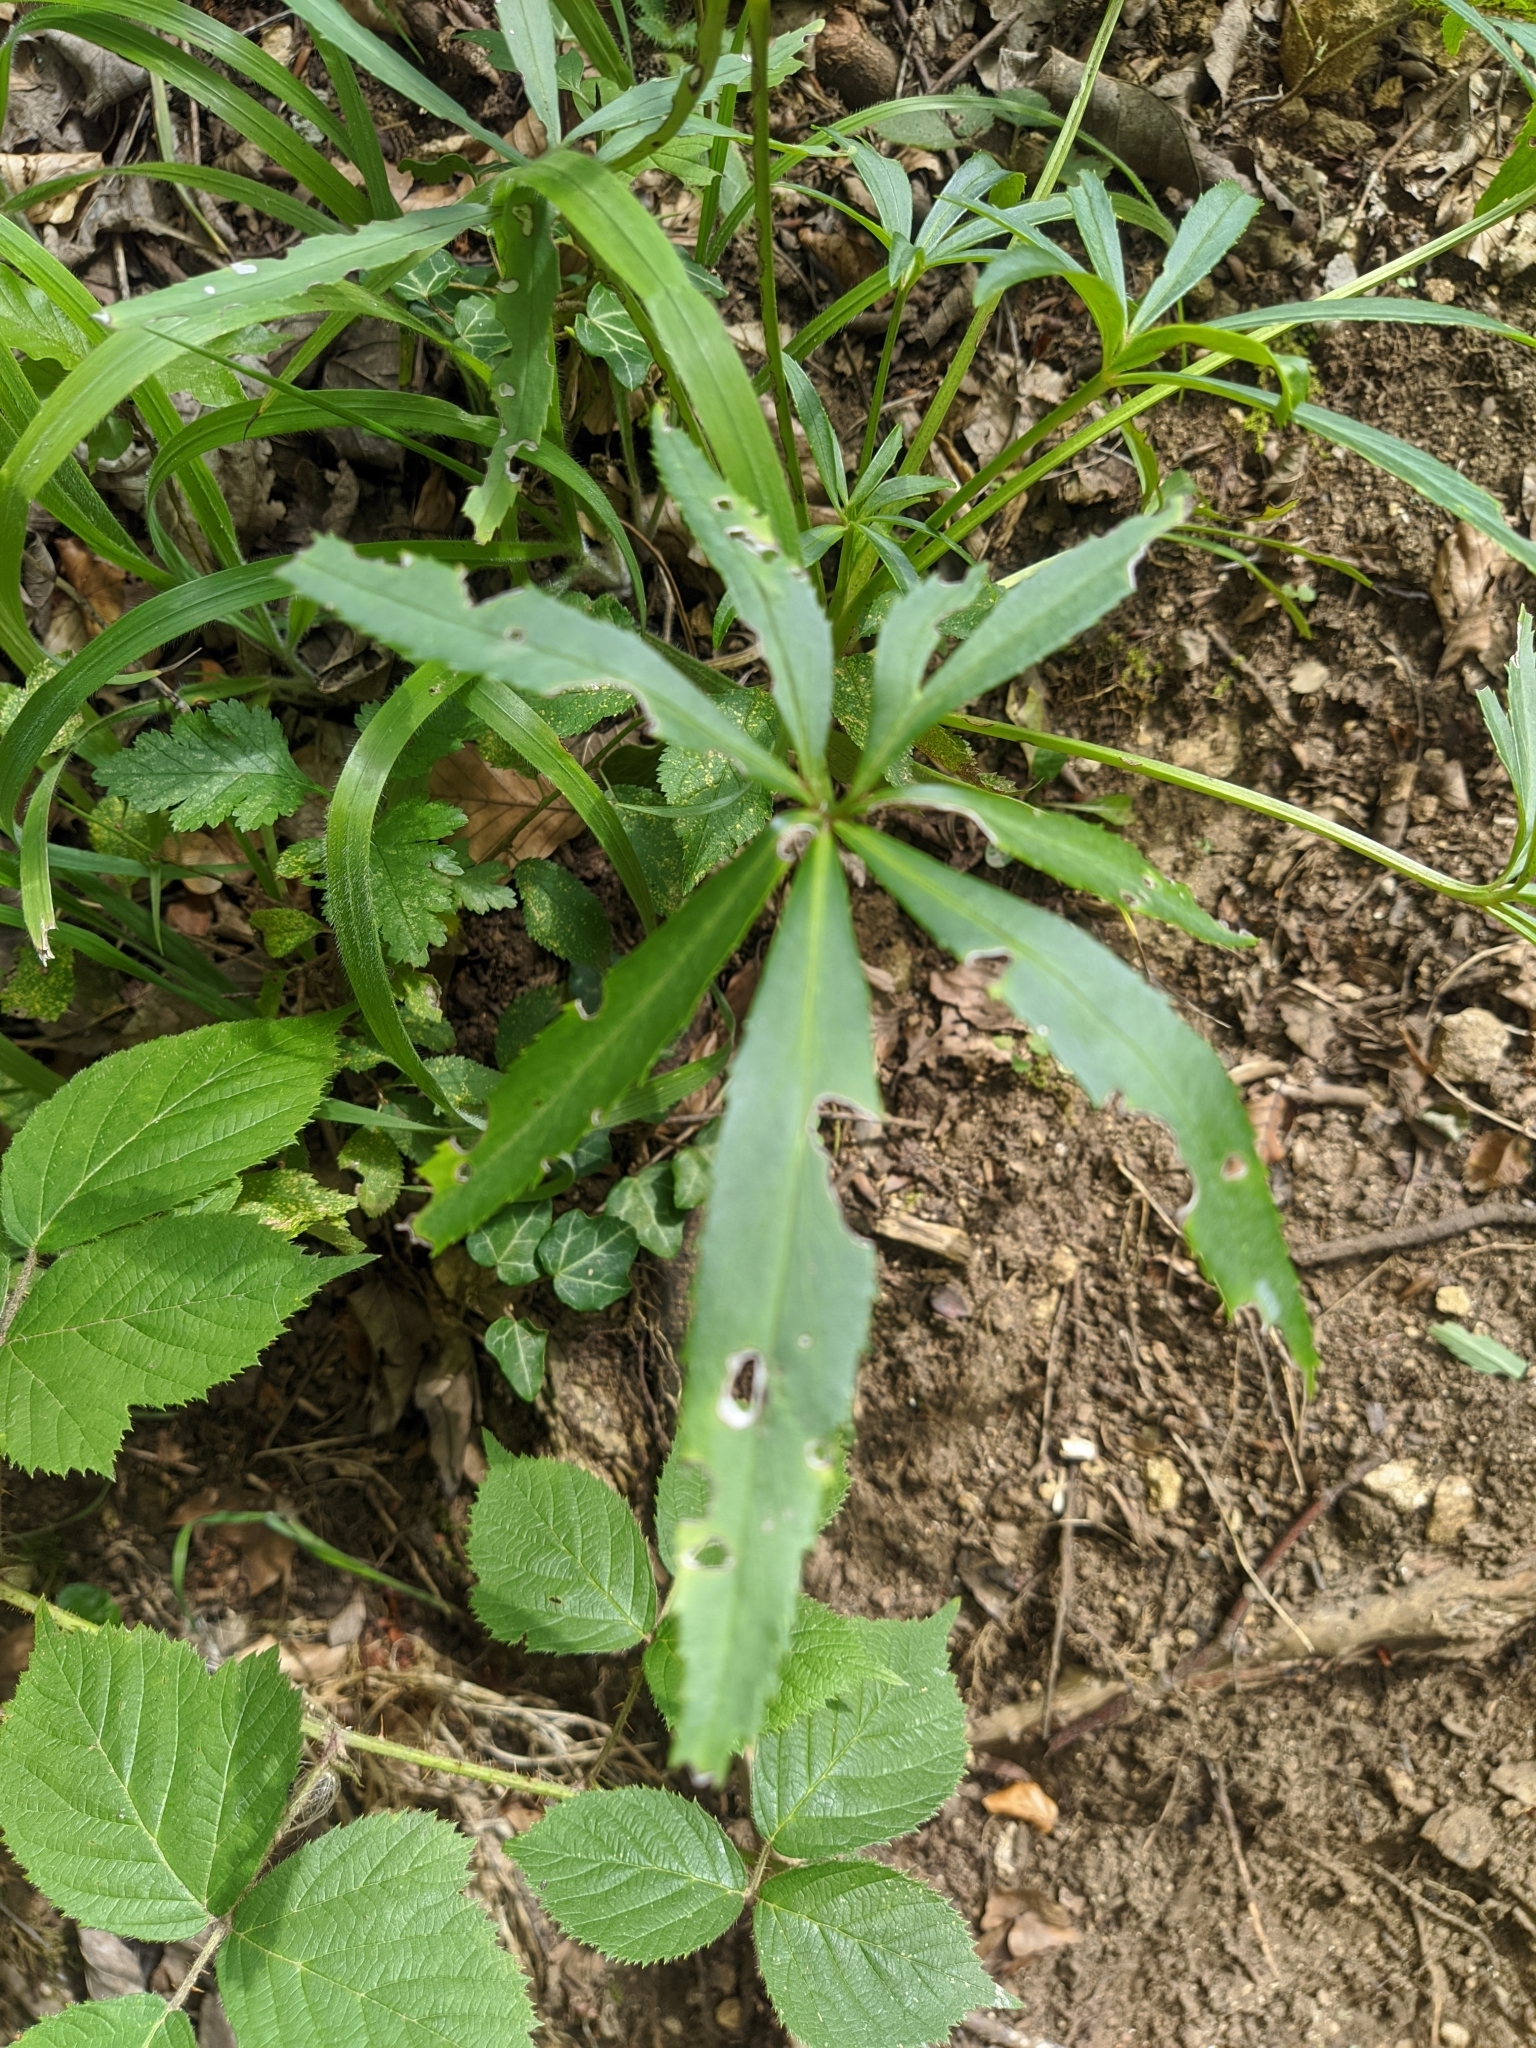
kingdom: Plantae
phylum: Tracheophyta
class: Magnoliopsida
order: Ranunculales
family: Ranunculaceae
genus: Helleborus
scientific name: Helleborus foetidus
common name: Stinking hellebore
